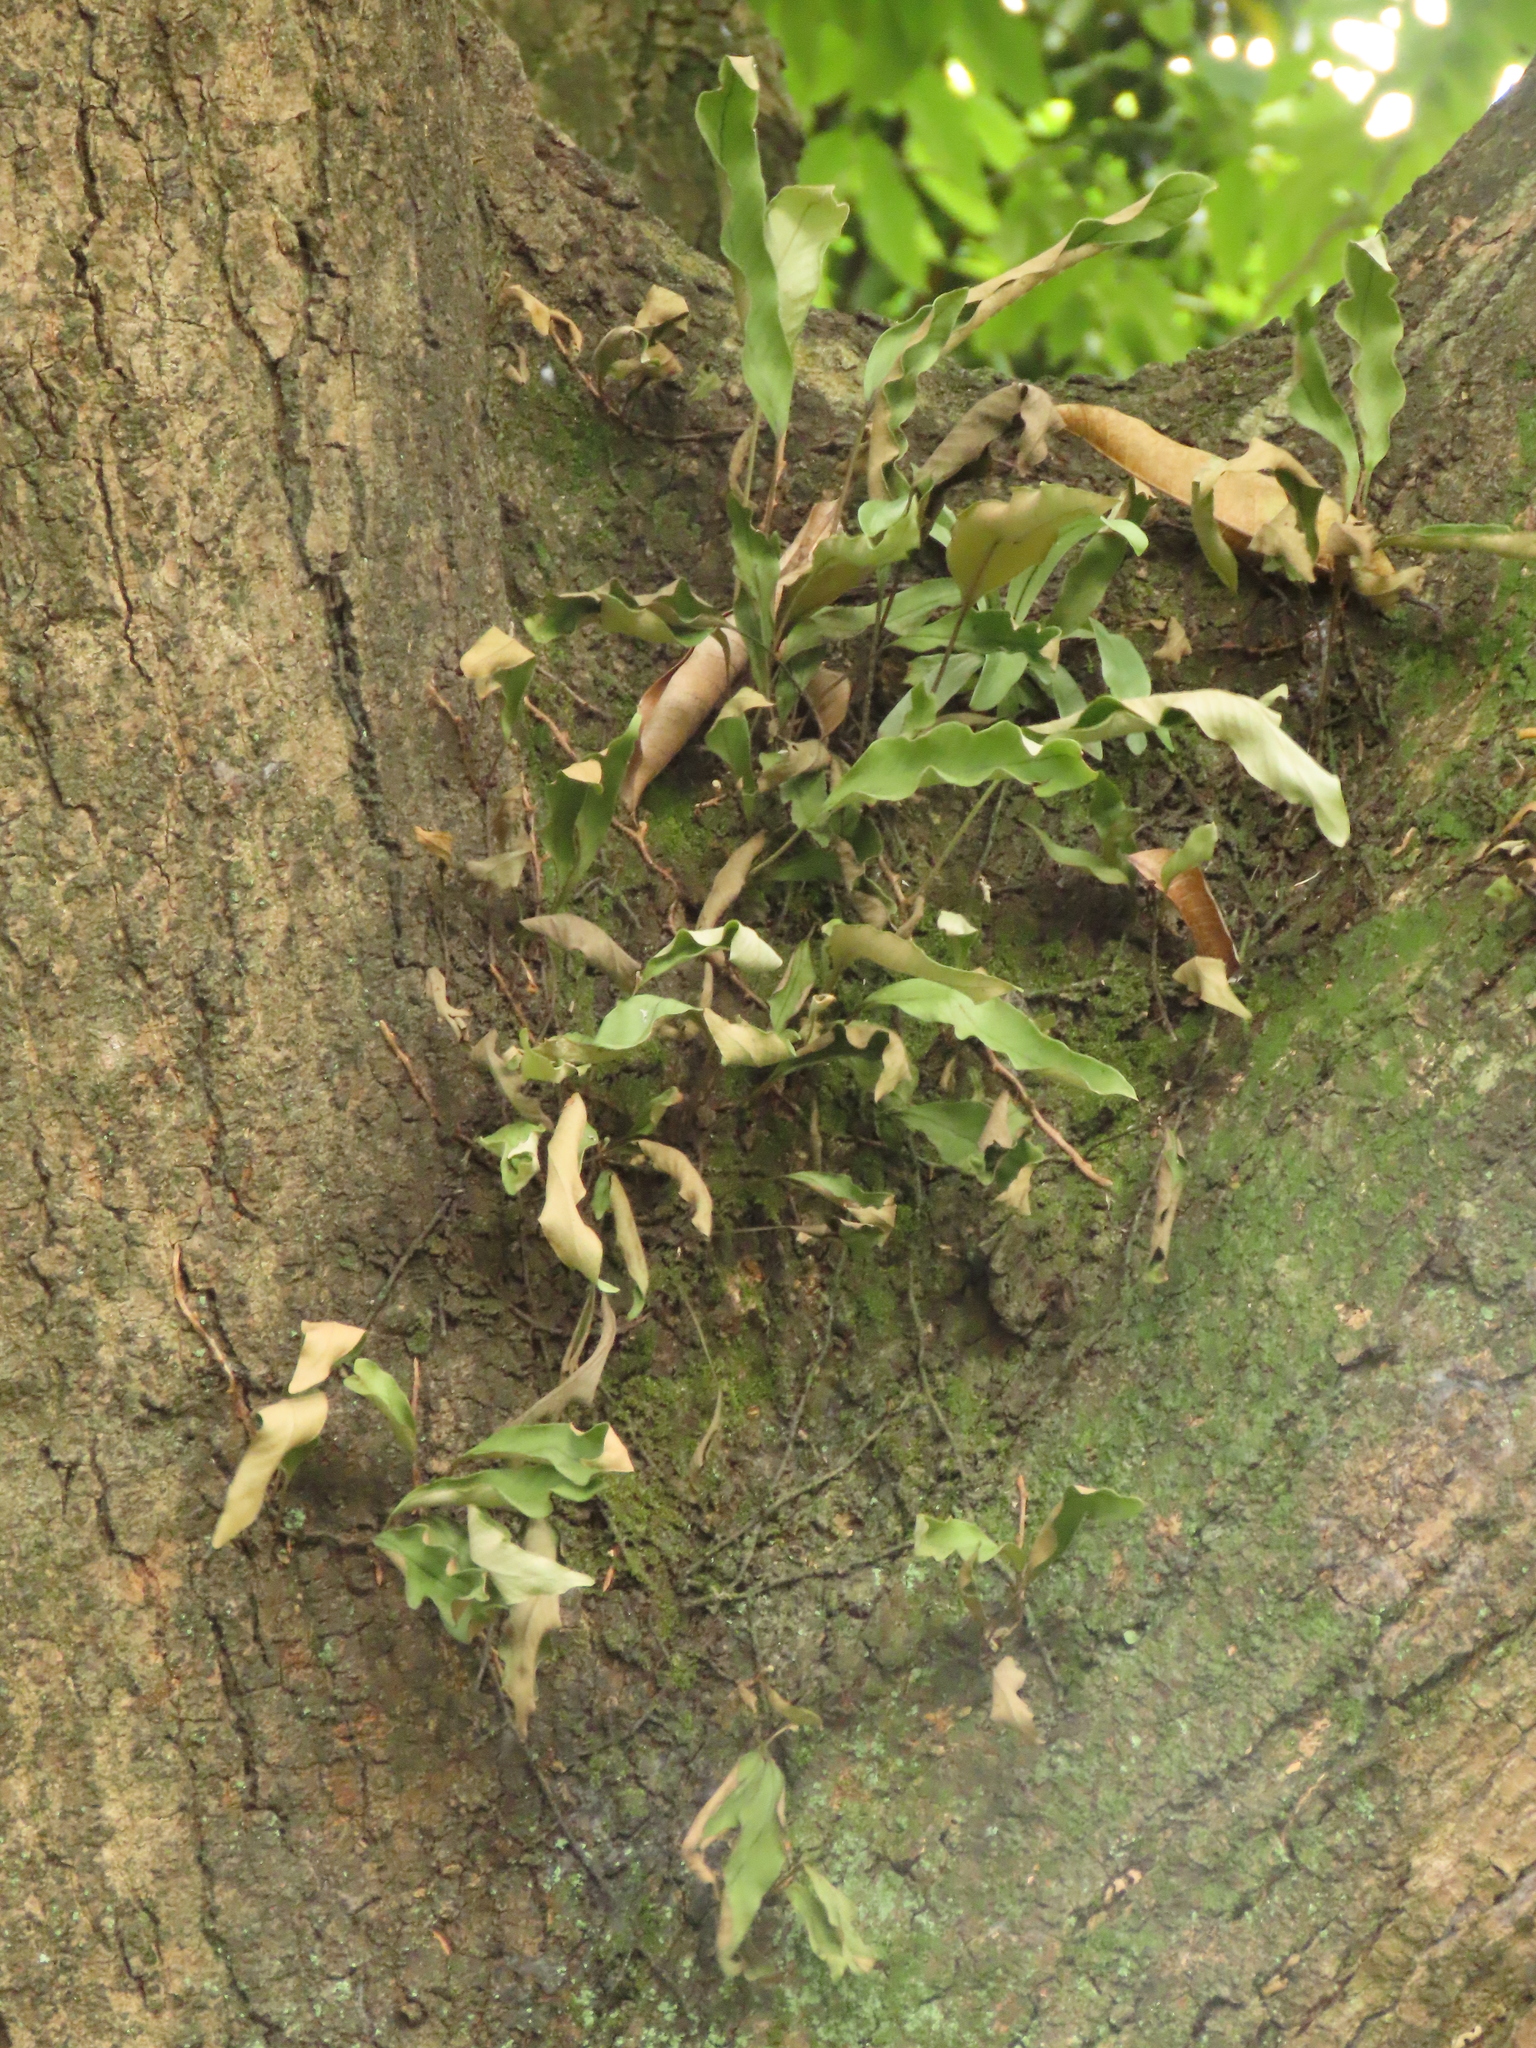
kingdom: Plantae
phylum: Tracheophyta
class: Polypodiopsida
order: Polypodiales
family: Polypodiaceae
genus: Pyrrosia
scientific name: Pyrrosia lingua
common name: Felt fern
